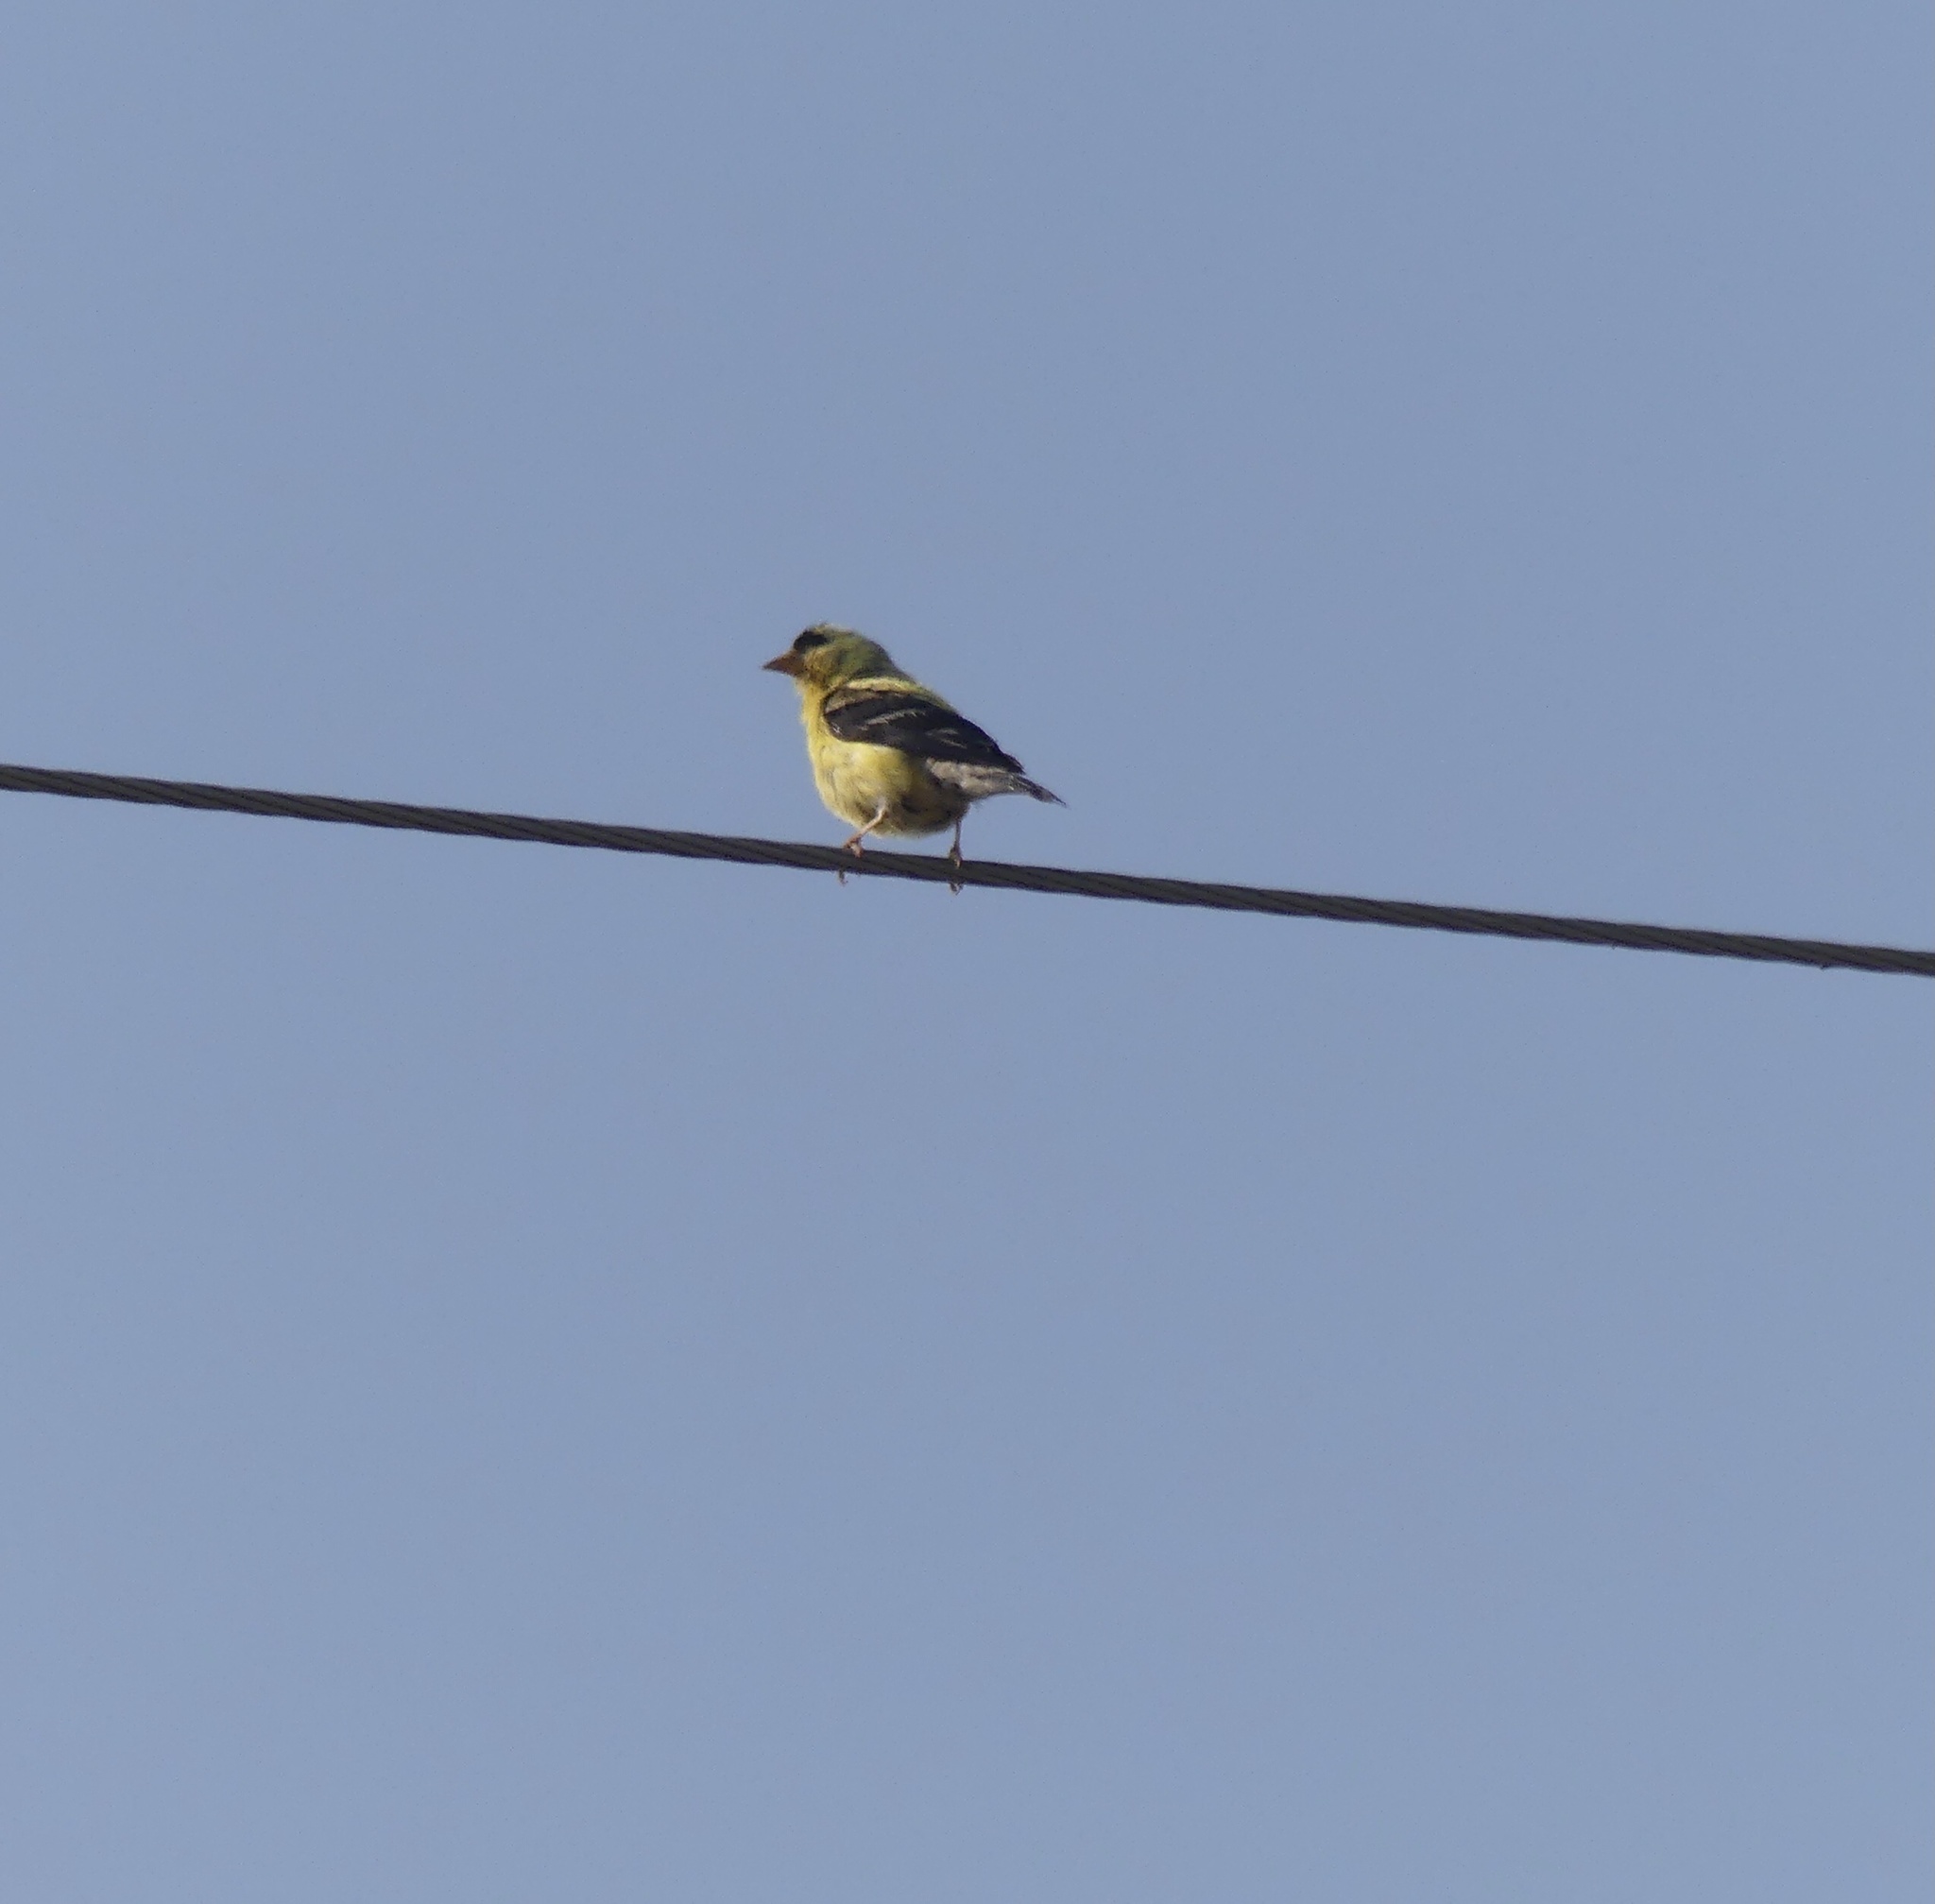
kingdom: Animalia
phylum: Chordata
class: Aves
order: Passeriformes
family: Fringillidae
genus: Spinus
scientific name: Spinus tristis
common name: American goldfinch
